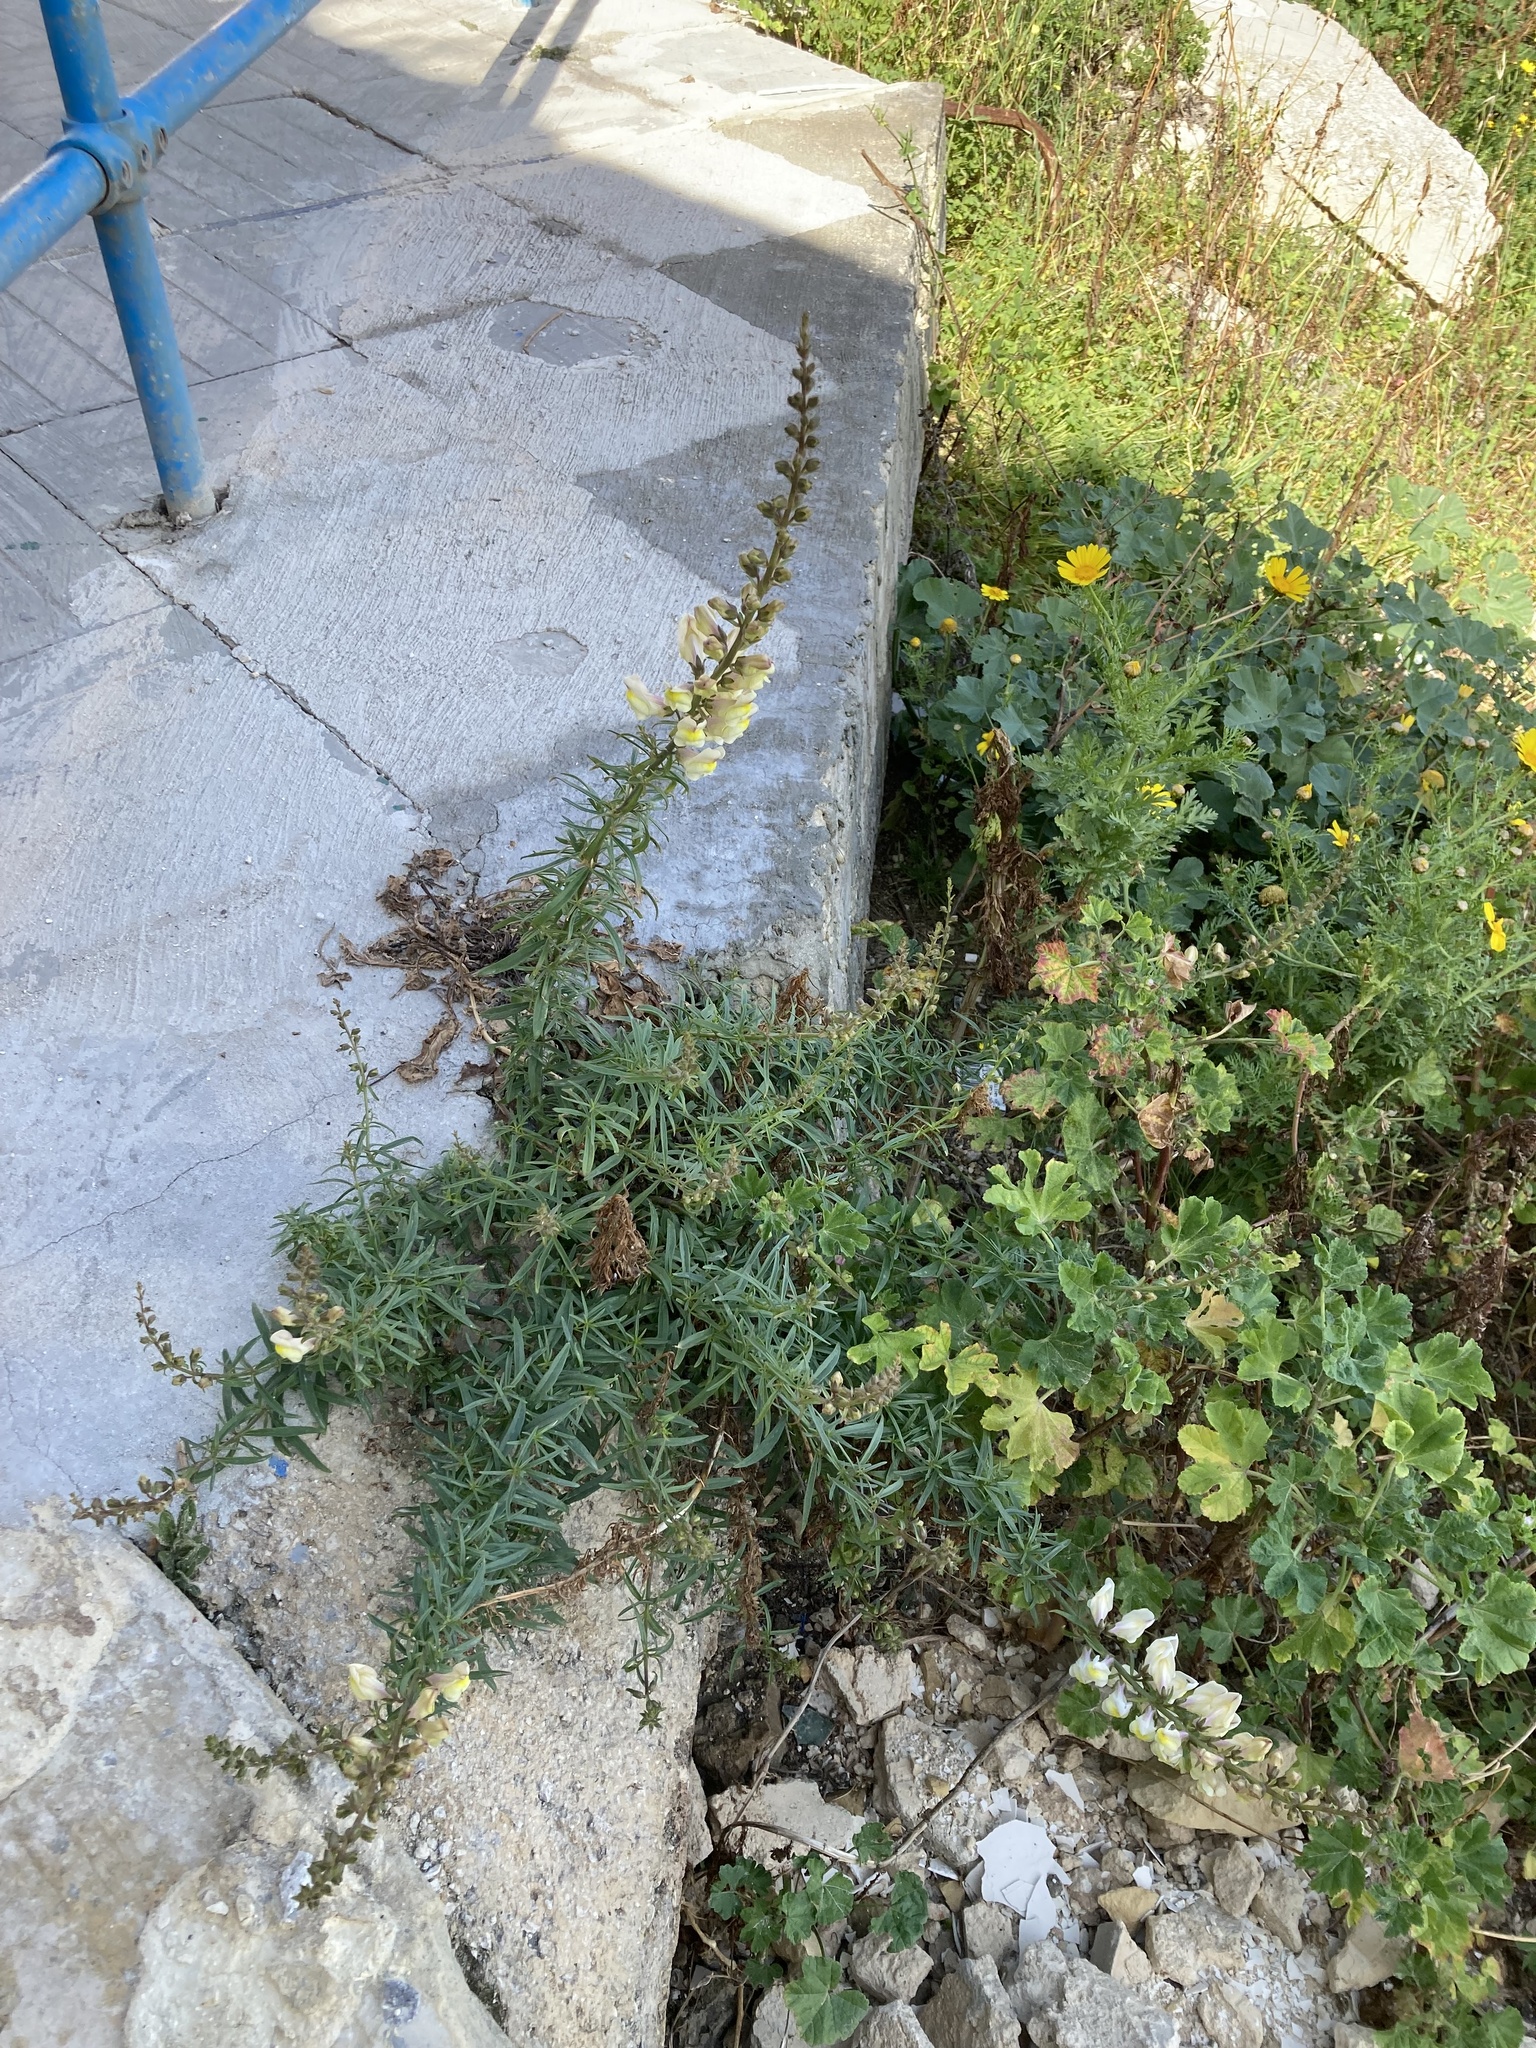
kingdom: Plantae
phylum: Tracheophyta
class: Magnoliopsida
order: Lamiales
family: Plantaginaceae
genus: Antirrhinum
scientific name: Antirrhinum siculum
